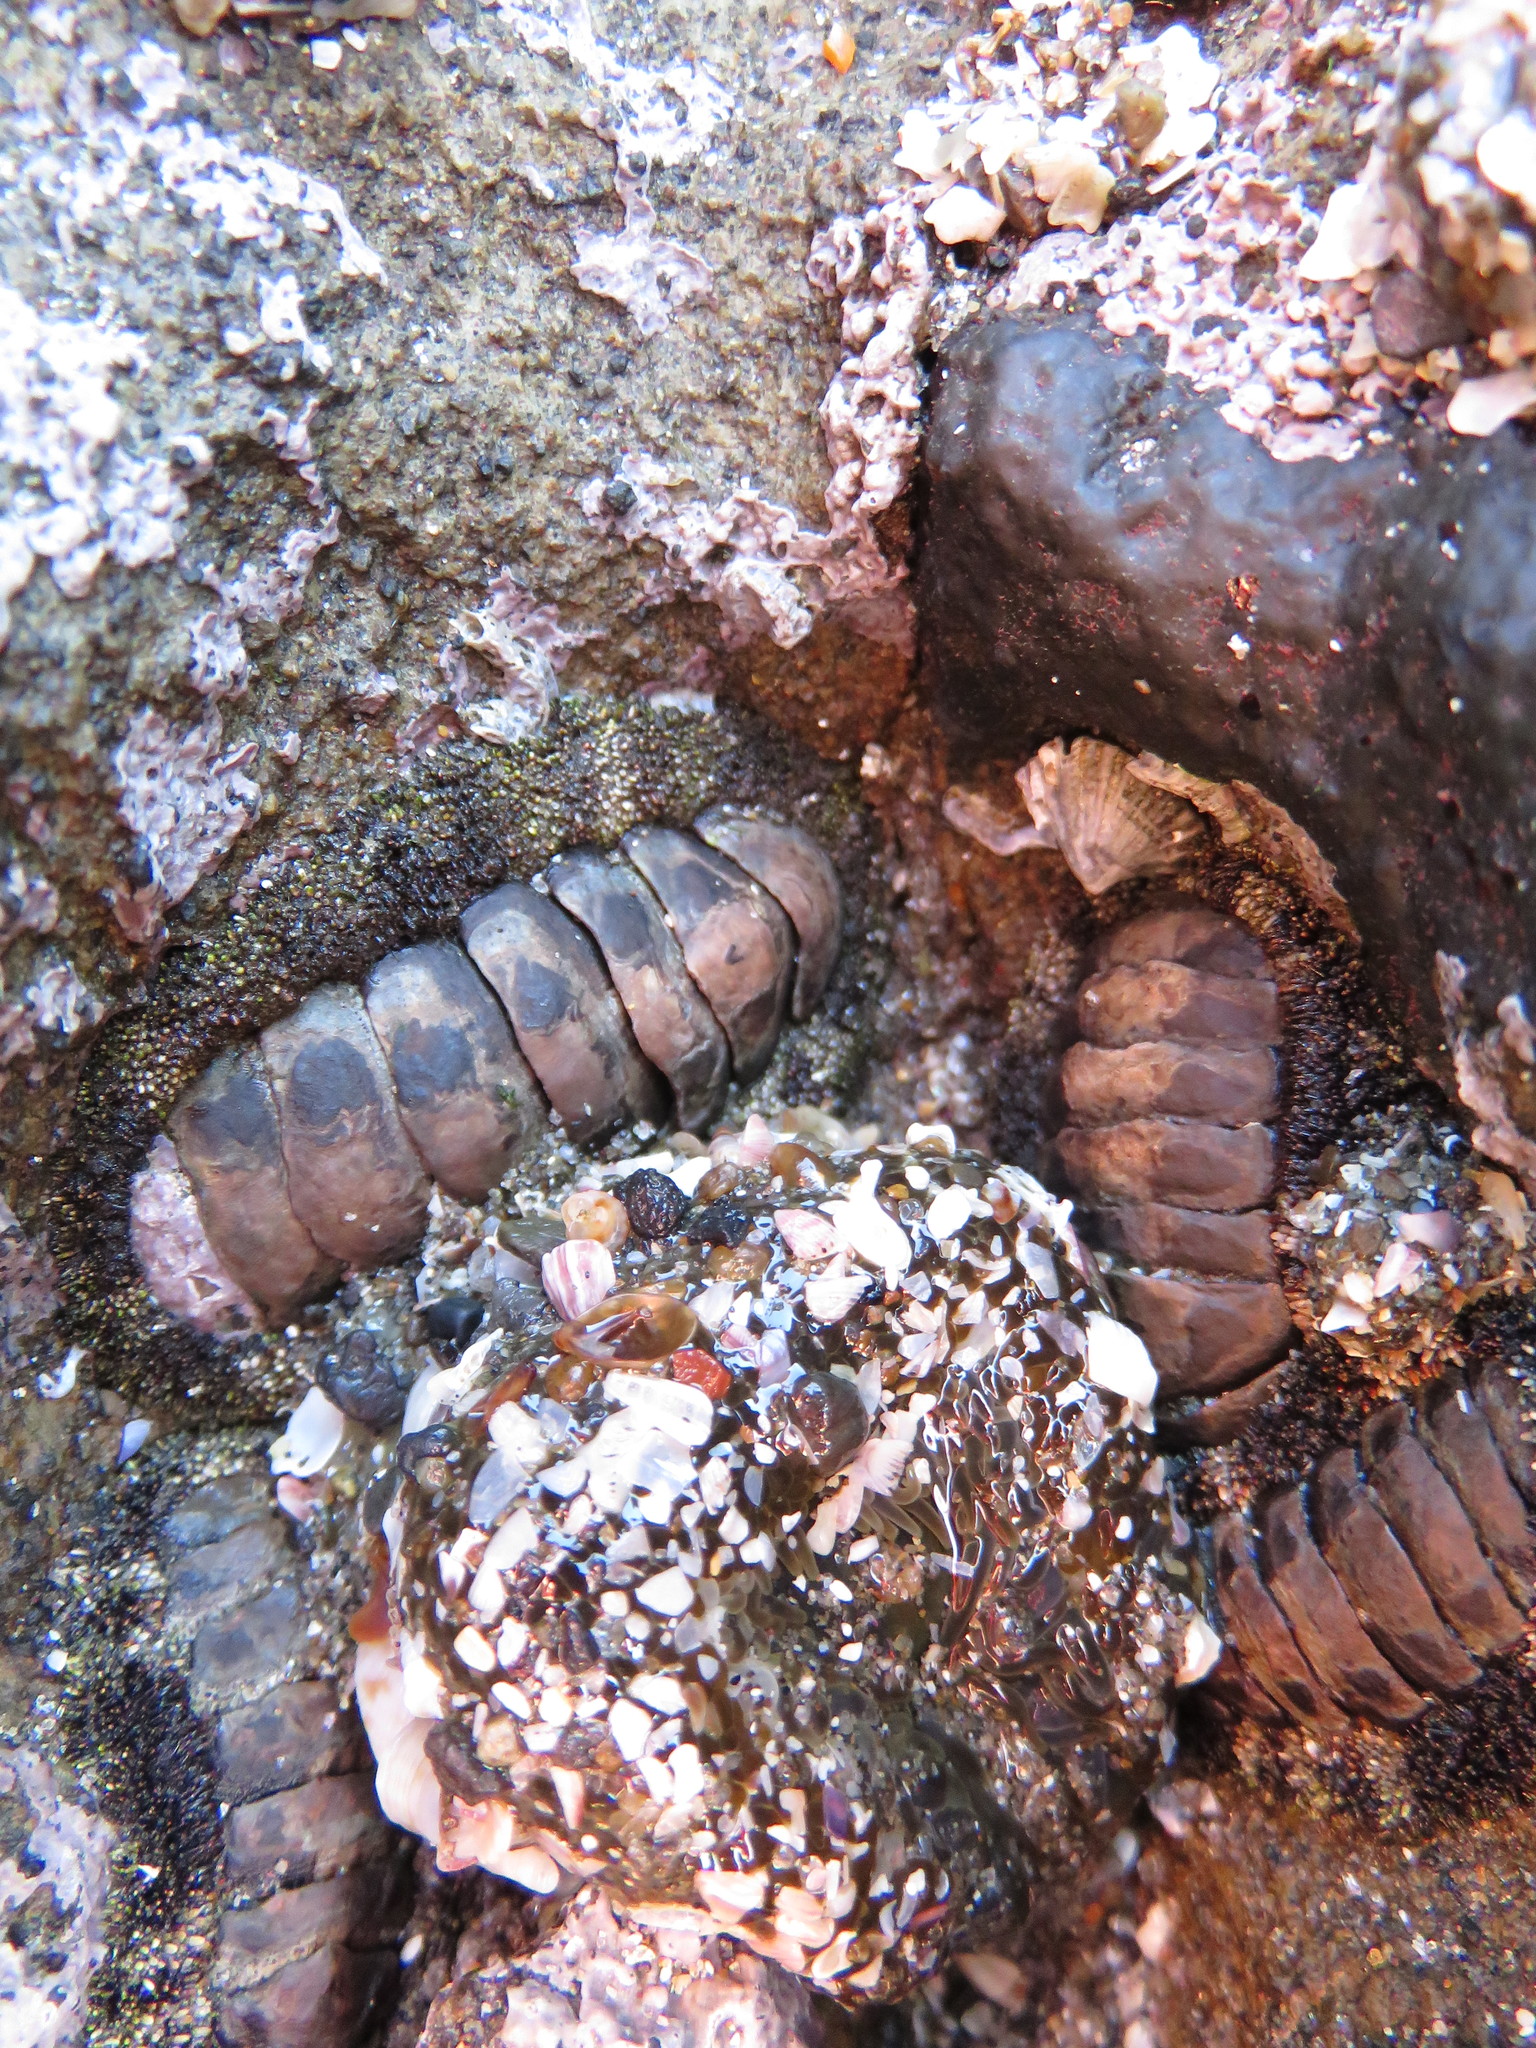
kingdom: Animalia
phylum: Mollusca
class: Polyplacophora
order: Chitonida
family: Chitonidae
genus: Liolophura
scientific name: Liolophura japonica
